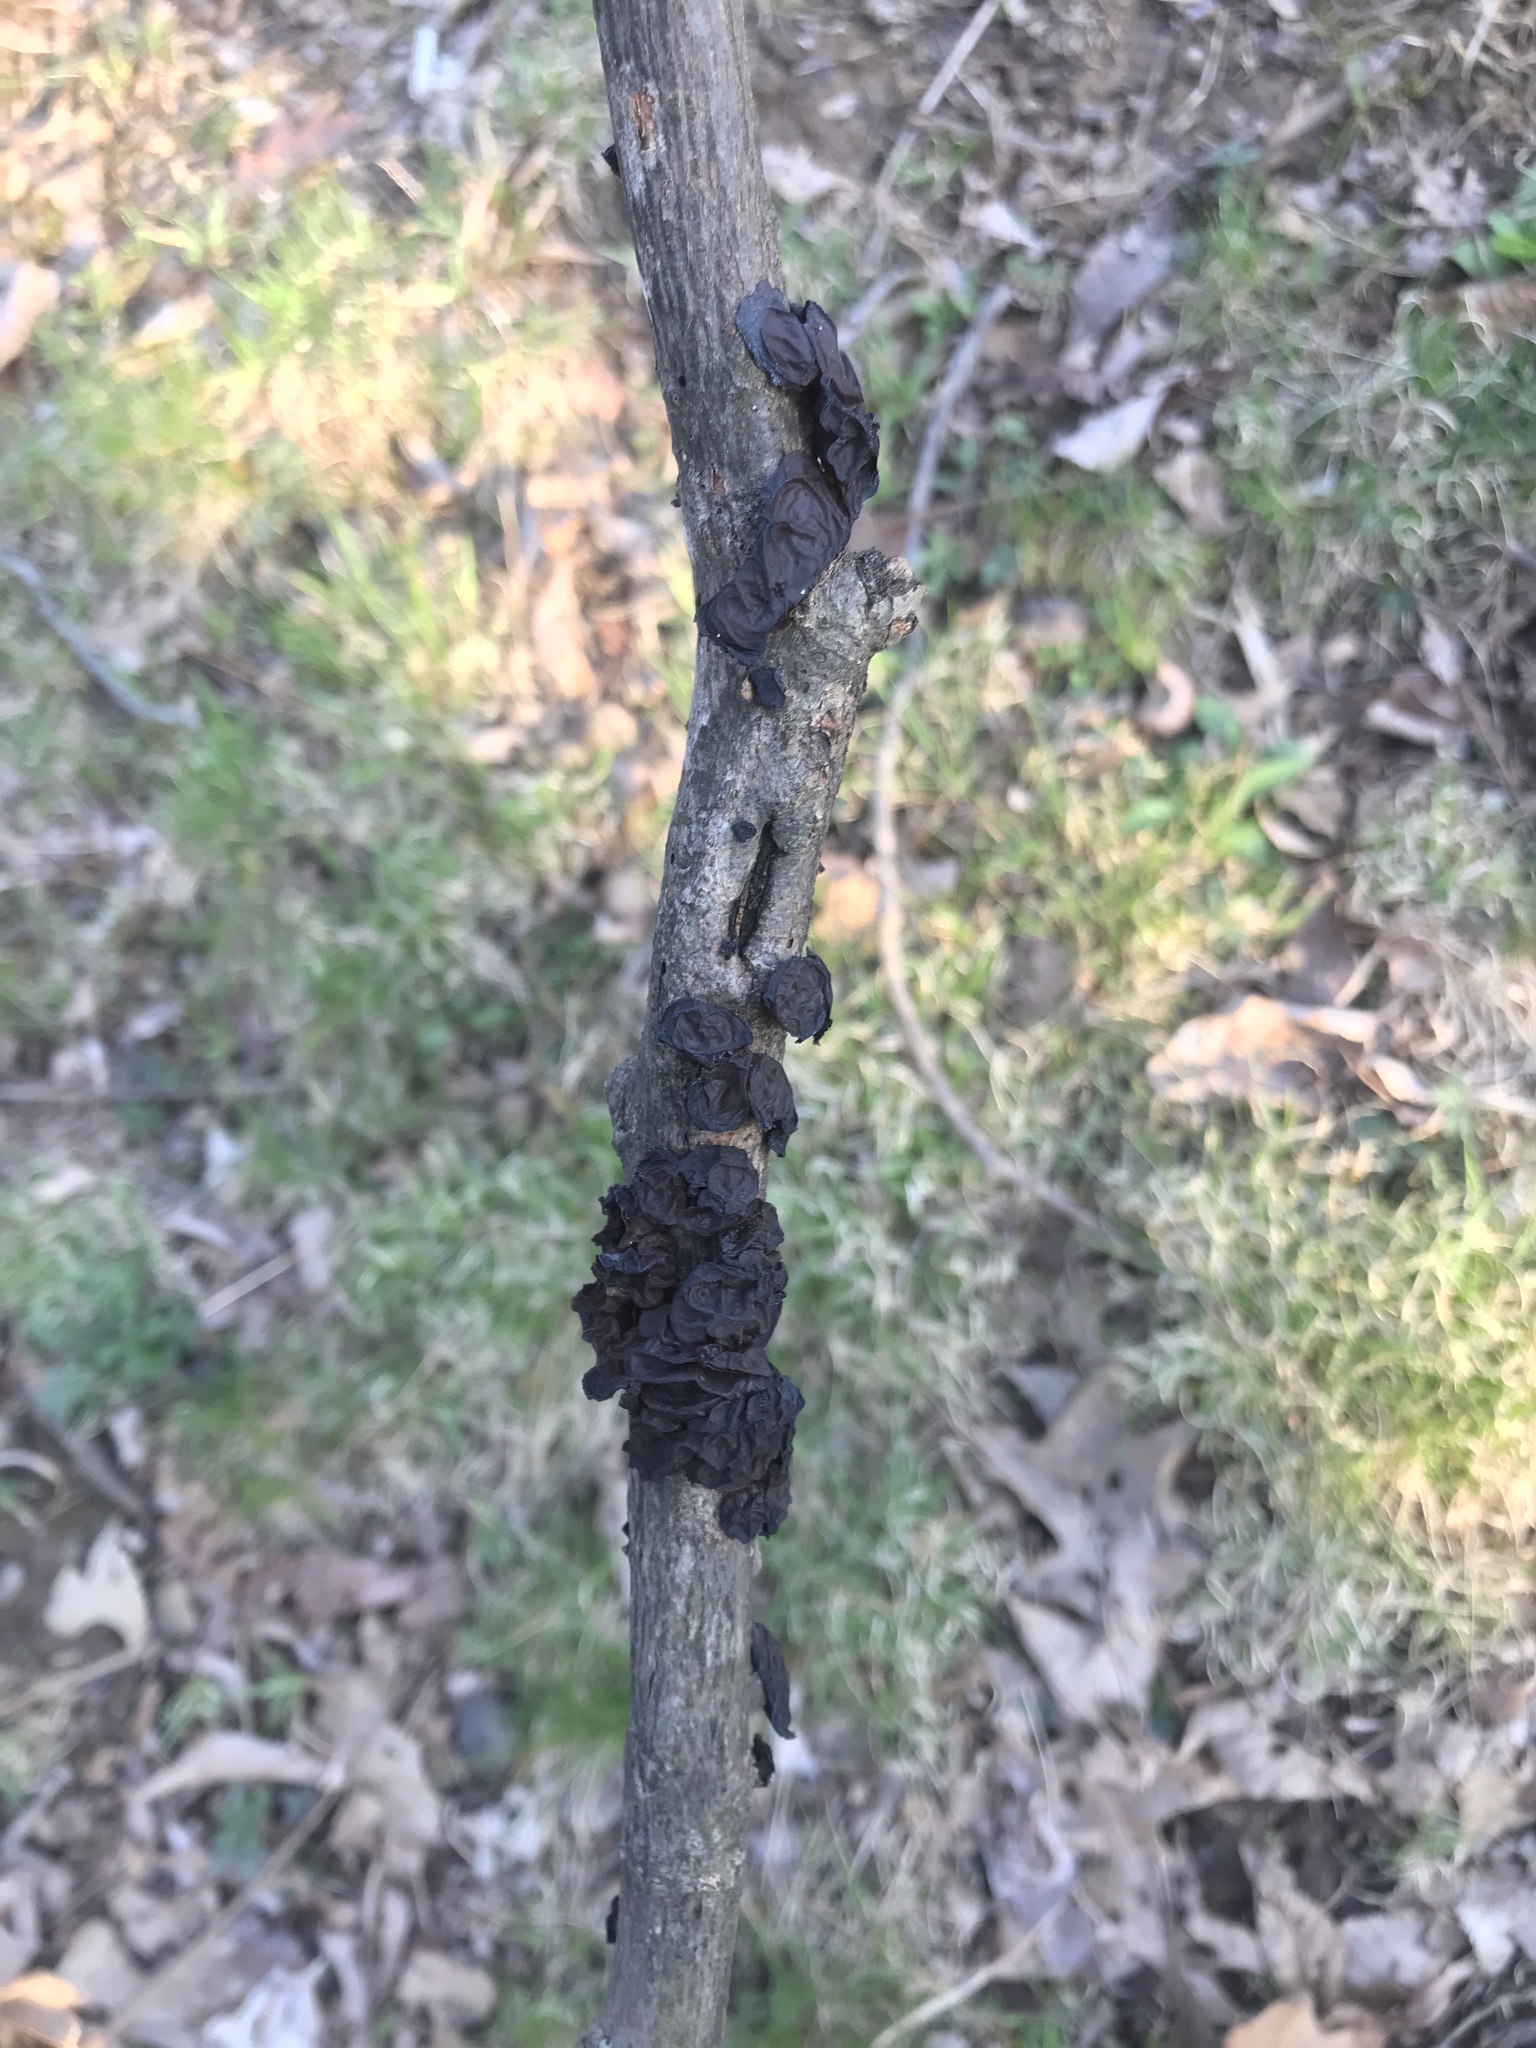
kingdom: Fungi
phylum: Basidiomycota
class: Agaricomycetes
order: Auriculariales
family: Auriculariaceae
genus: Exidia
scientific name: Exidia
